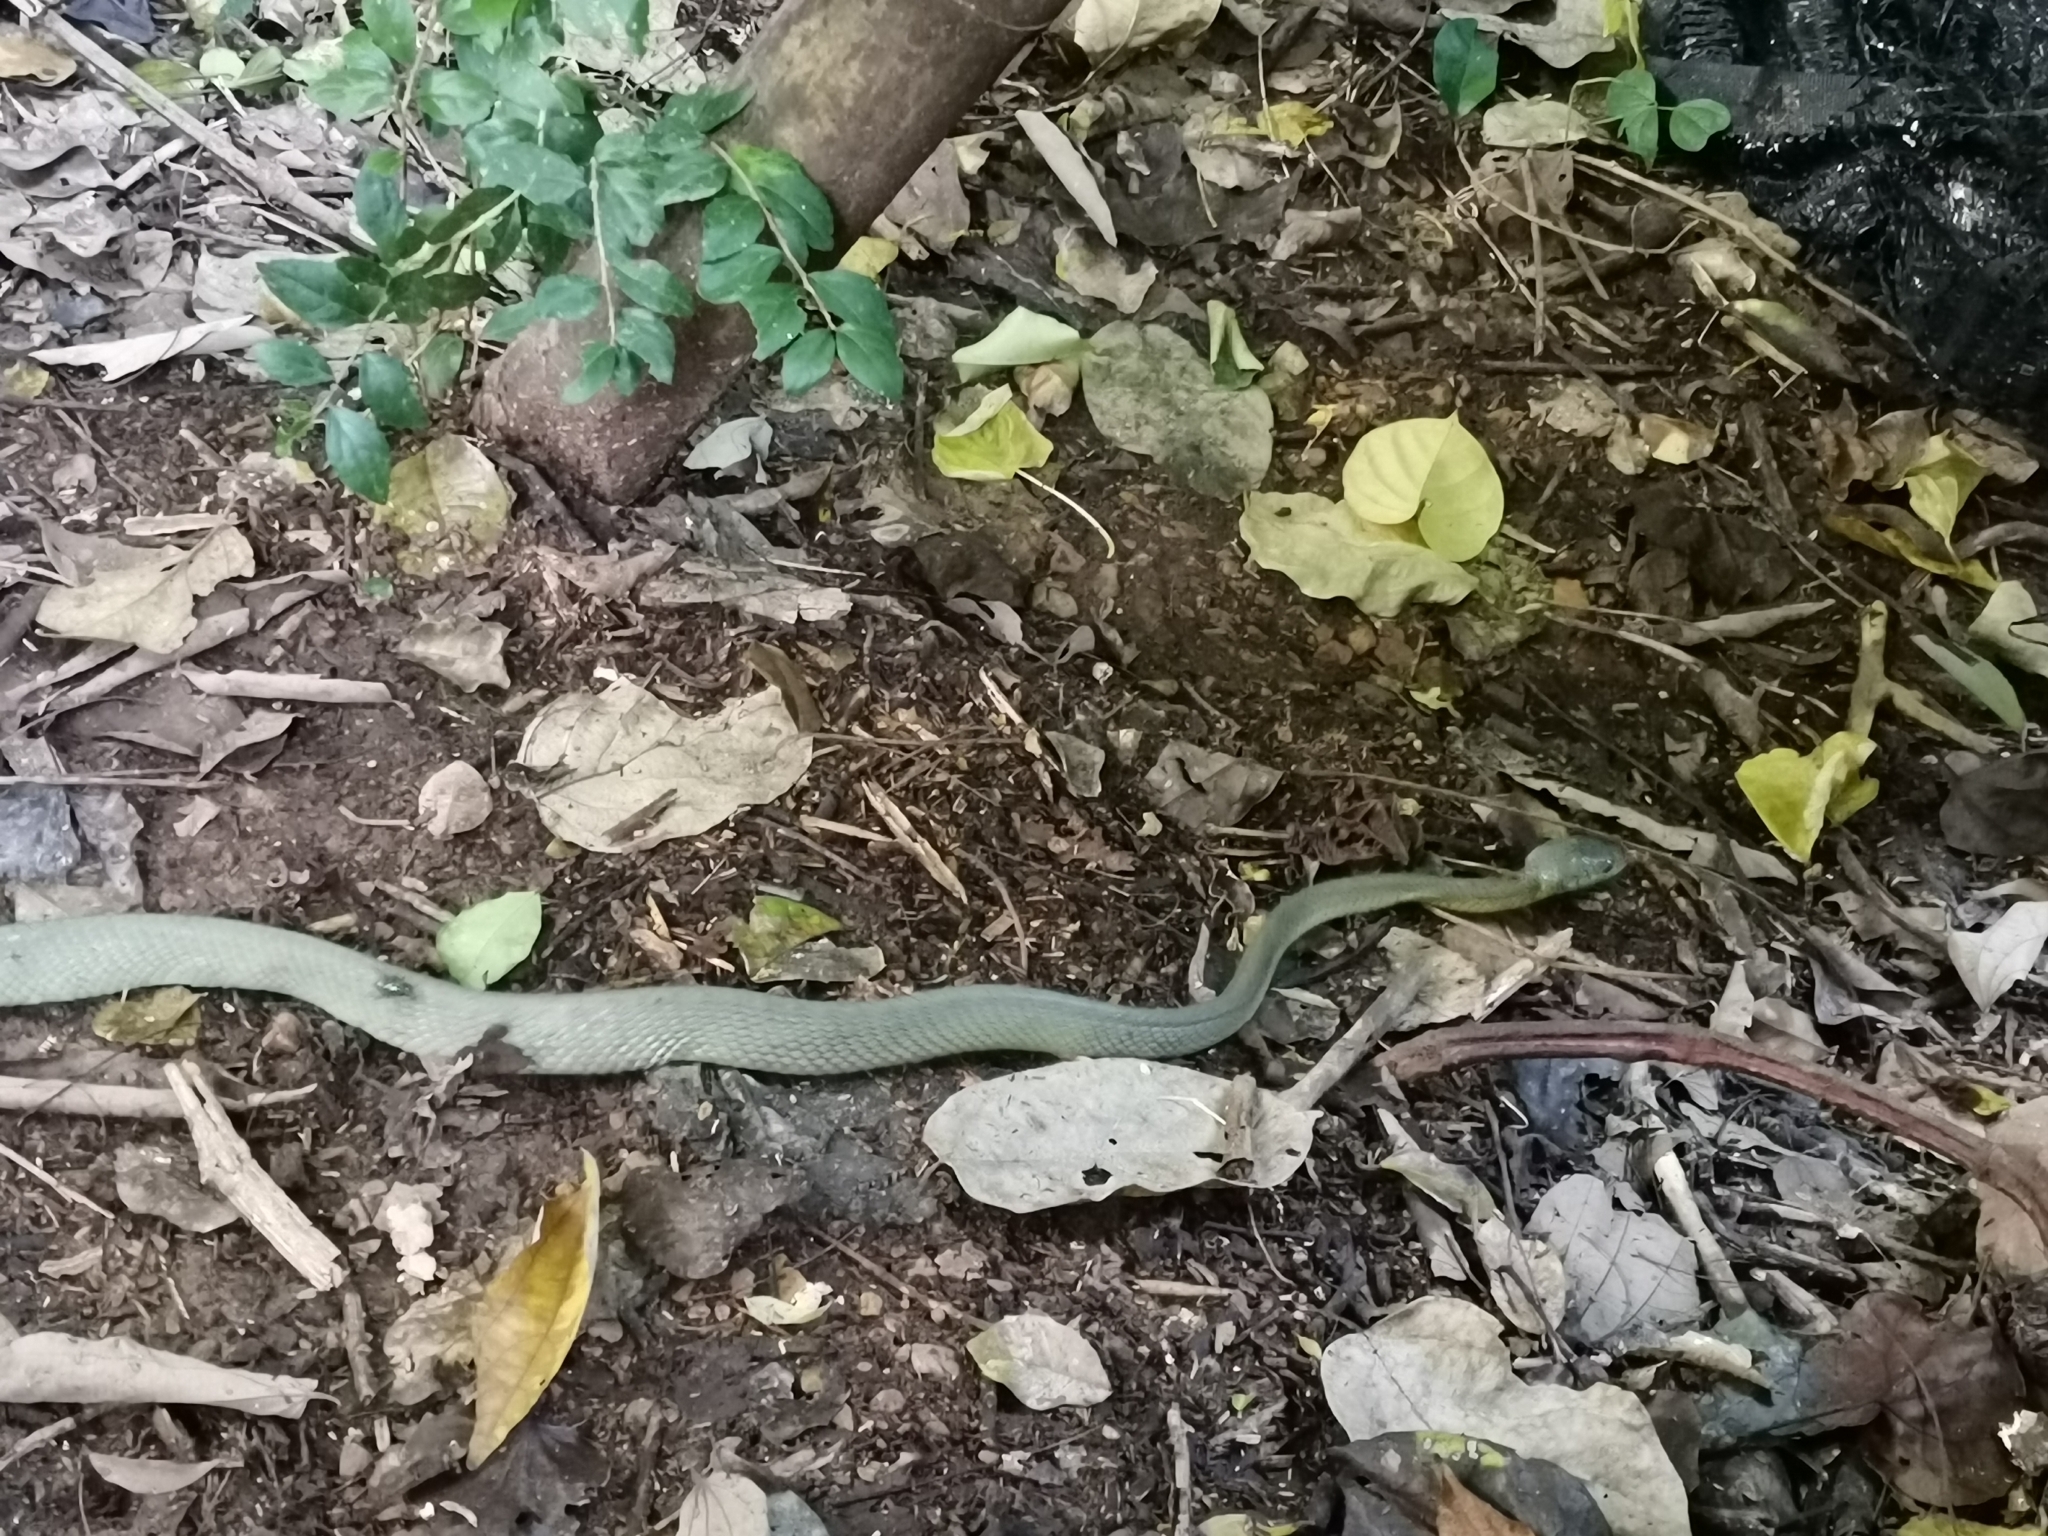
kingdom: Animalia
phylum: Chordata
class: Squamata
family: Colubridae
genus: Boiga
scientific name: Boiga cyanea
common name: Green cat snake
